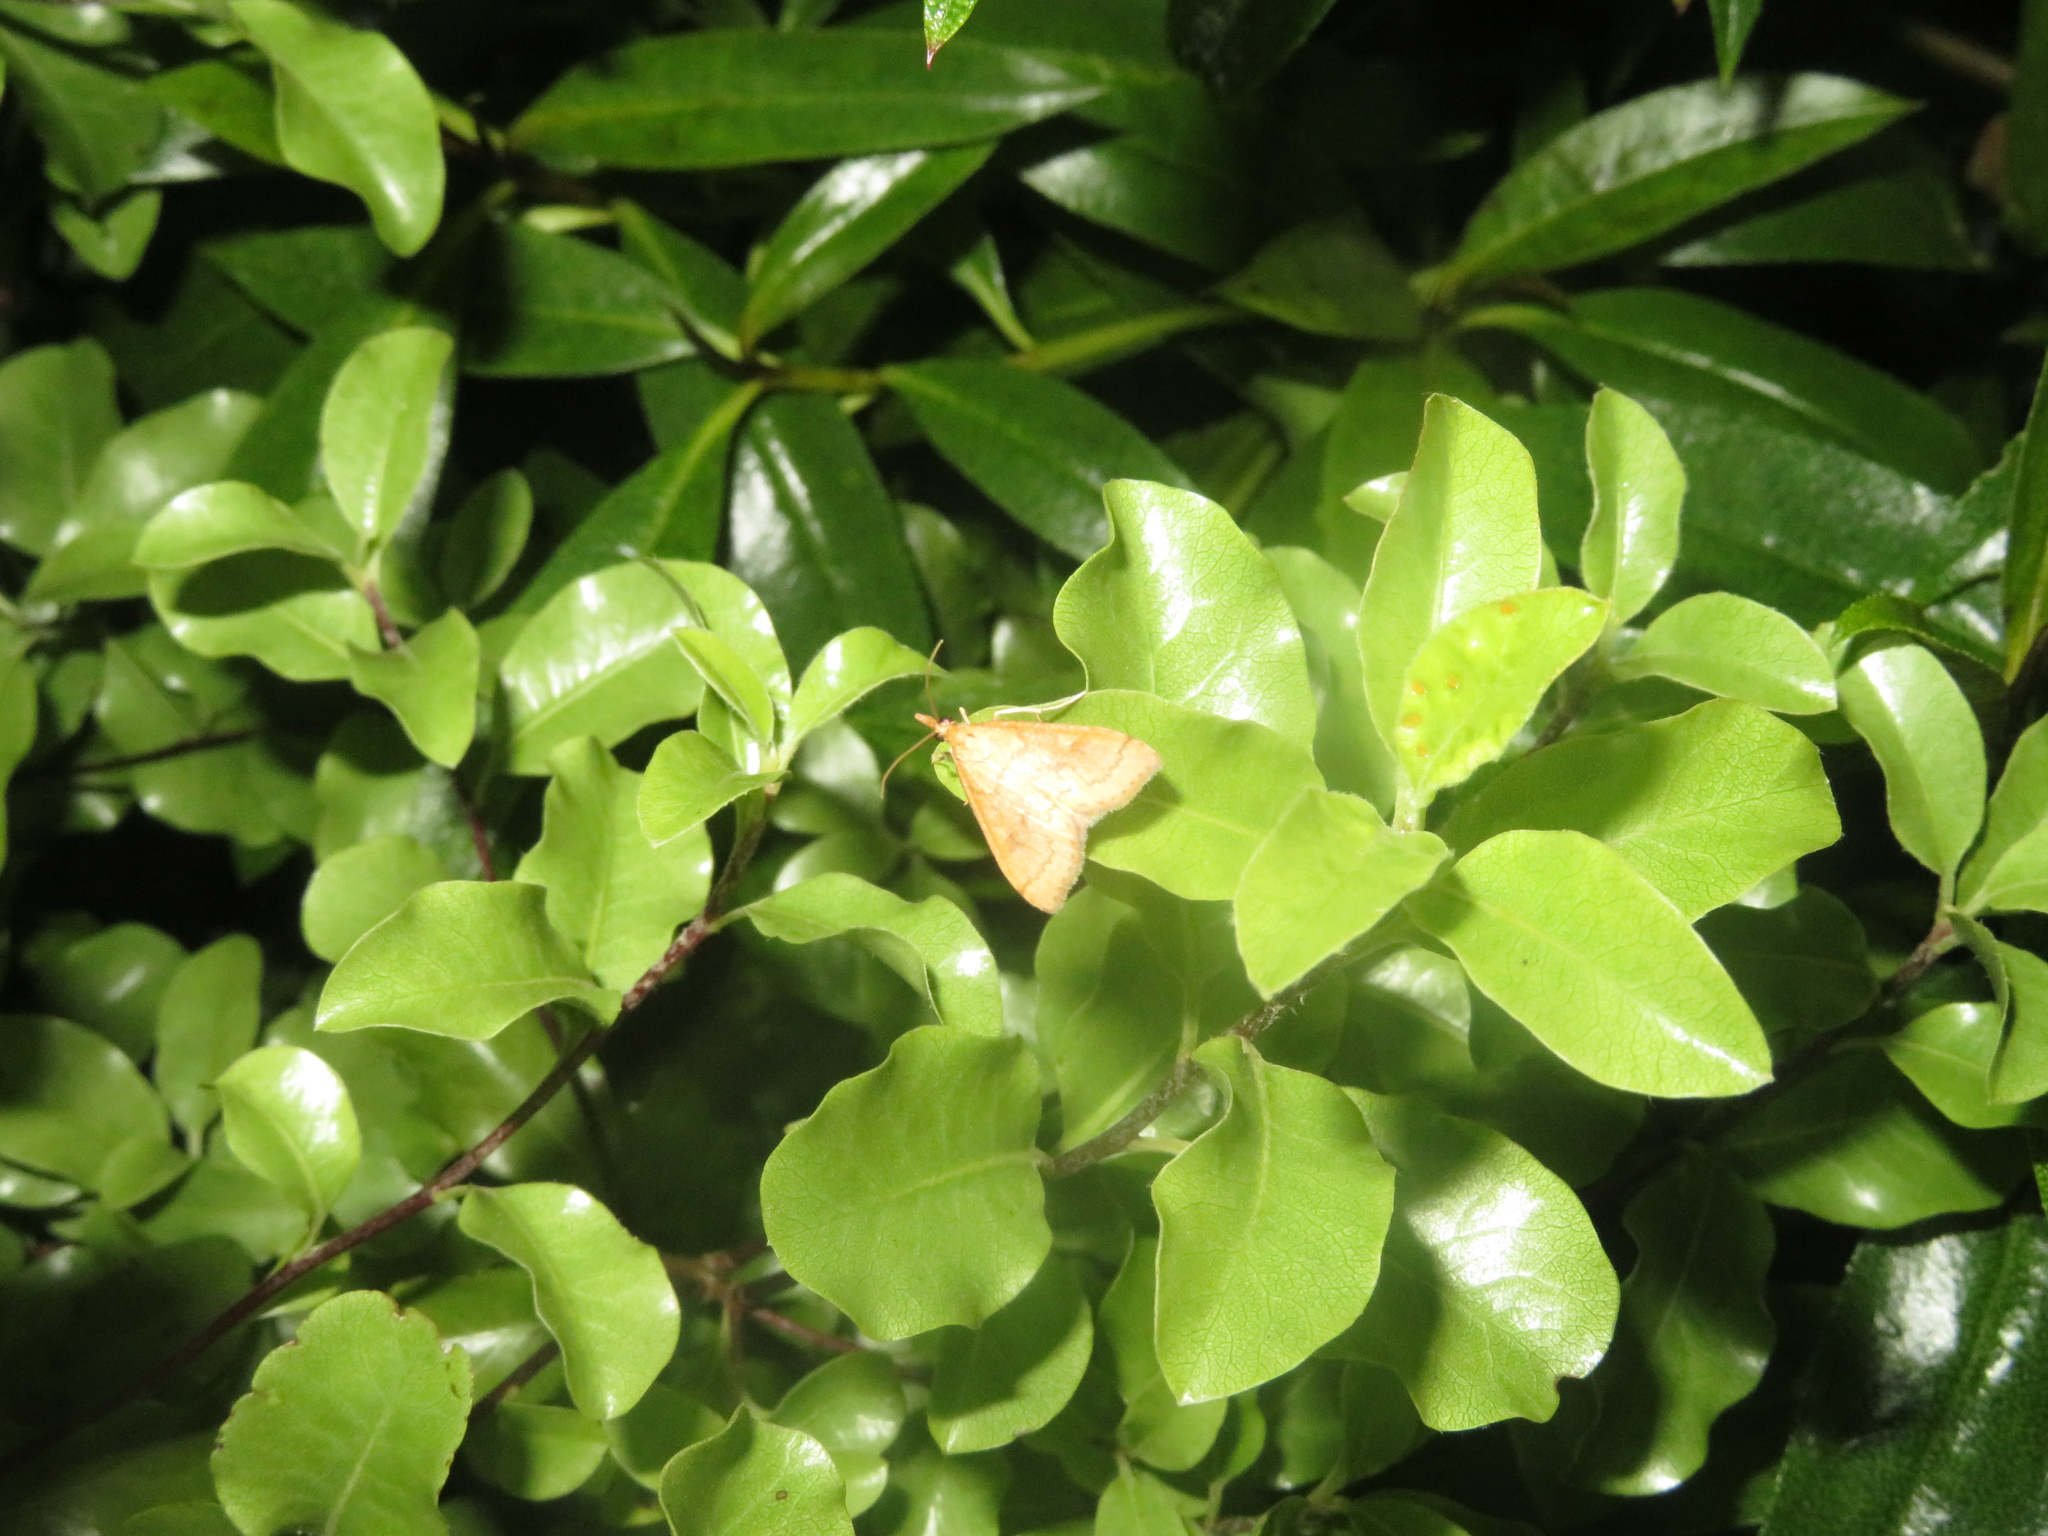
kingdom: Animalia
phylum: Arthropoda
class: Insecta
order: Lepidoptera
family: Crambidae
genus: Udea
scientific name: Udea Mnesictena flavidalis
